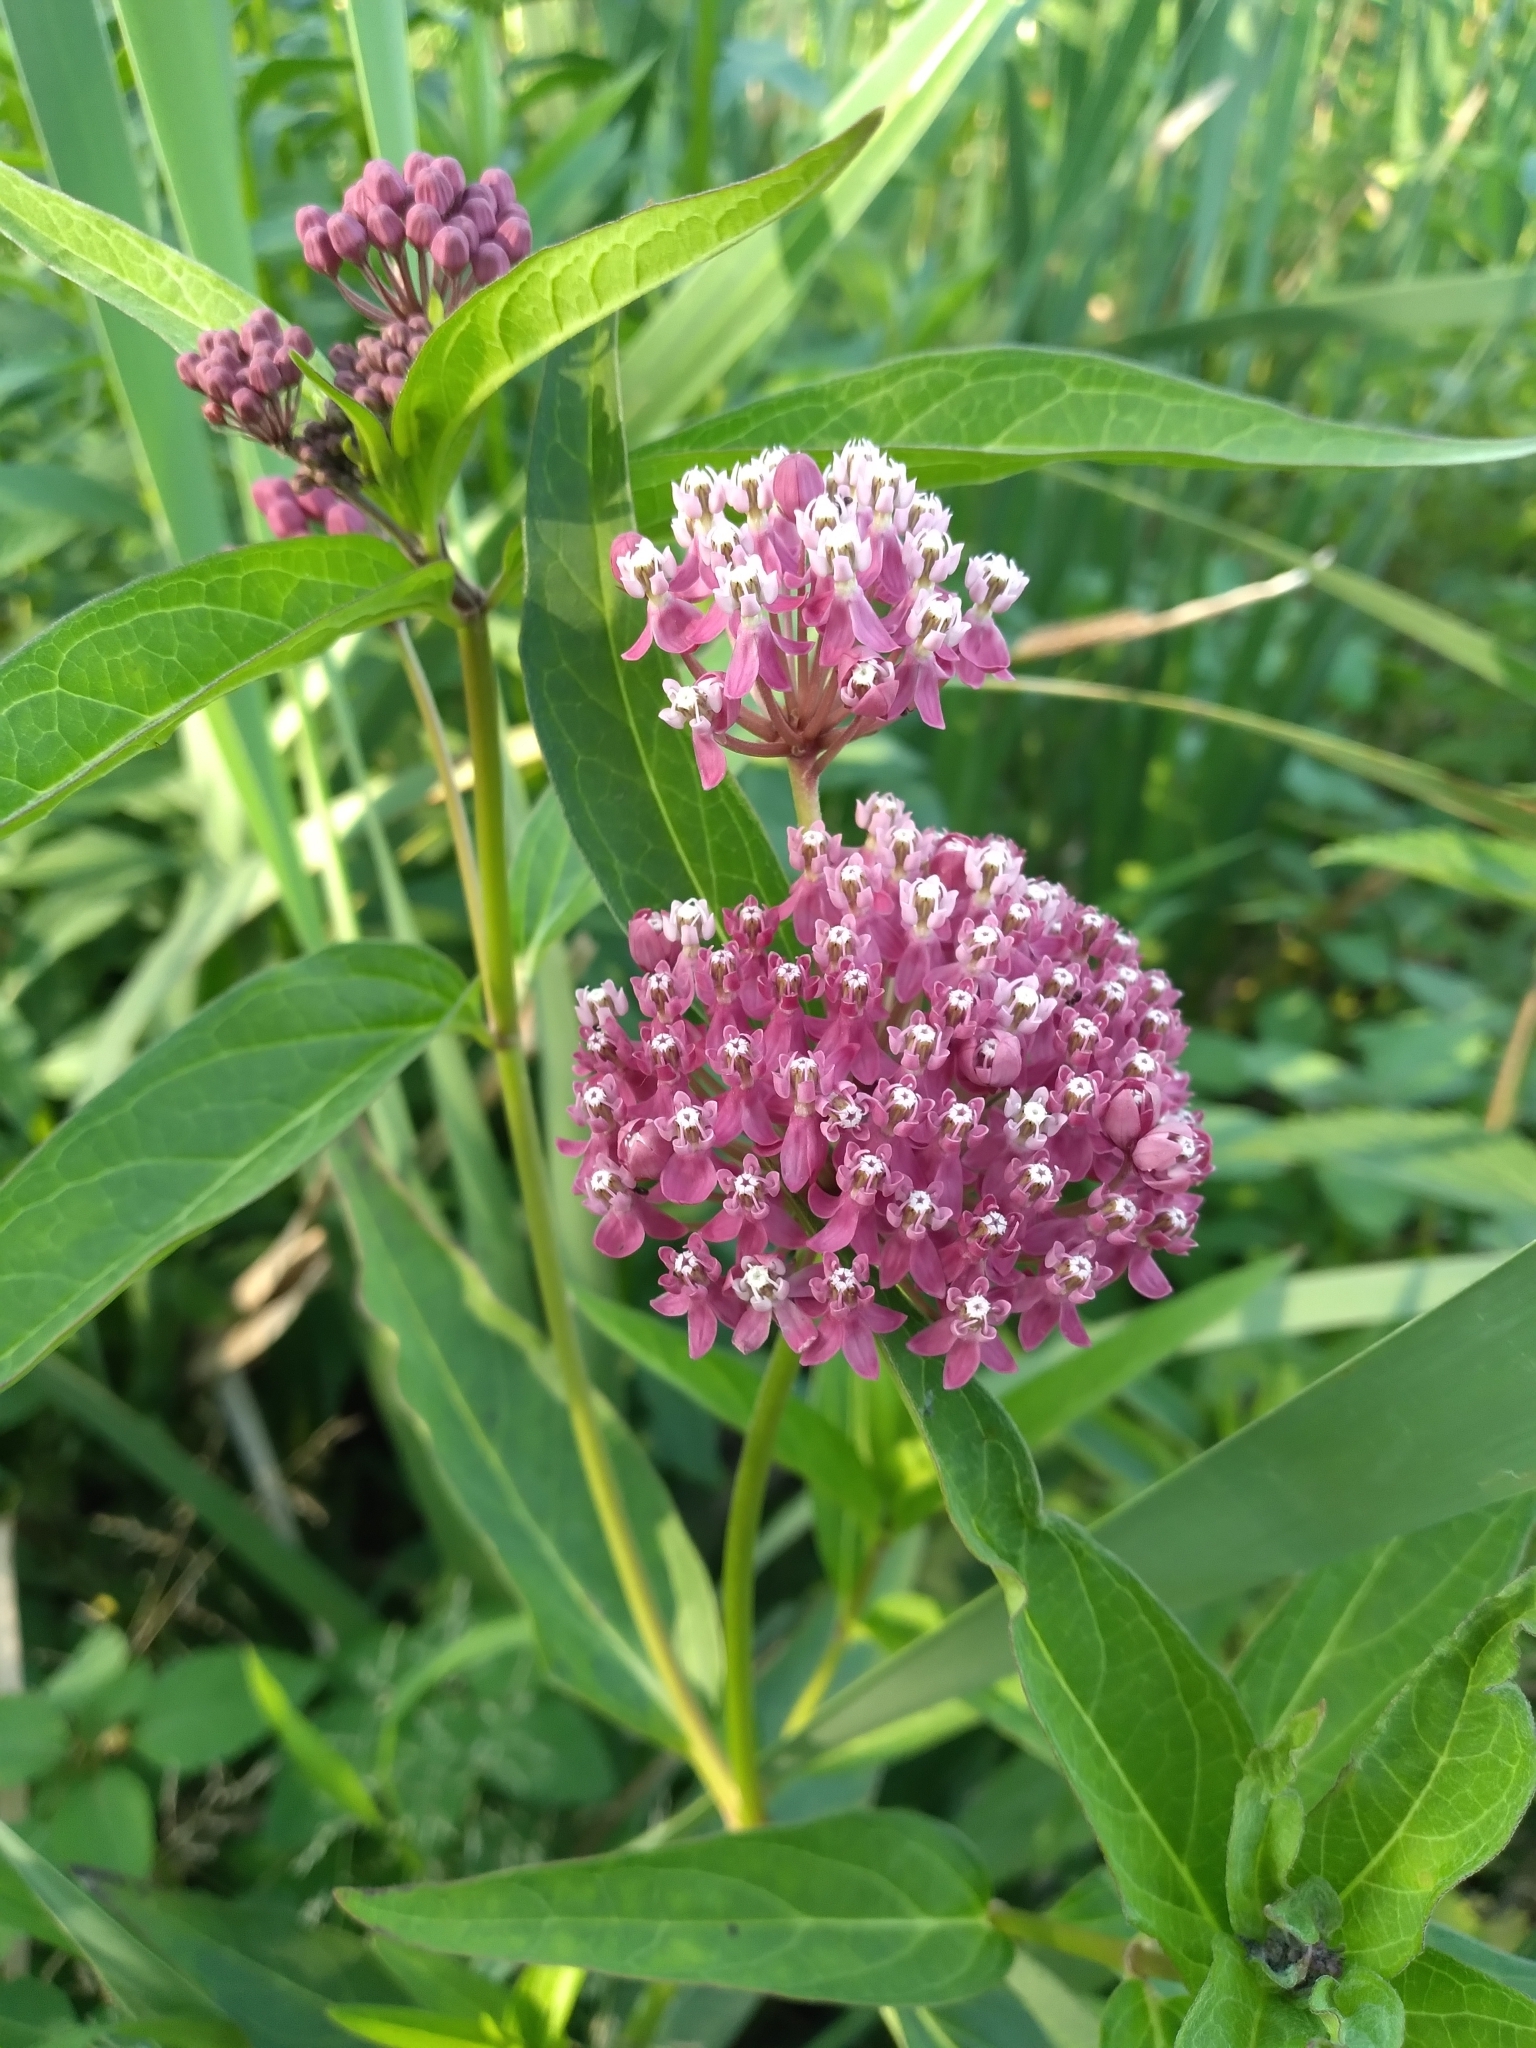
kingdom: Plantae
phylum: Tracheophyta
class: Magnoliopsida
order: Gentianales
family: Apocynaceae
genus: Asclepias
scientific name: Asclepias incarnata
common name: Swamp milkweed
